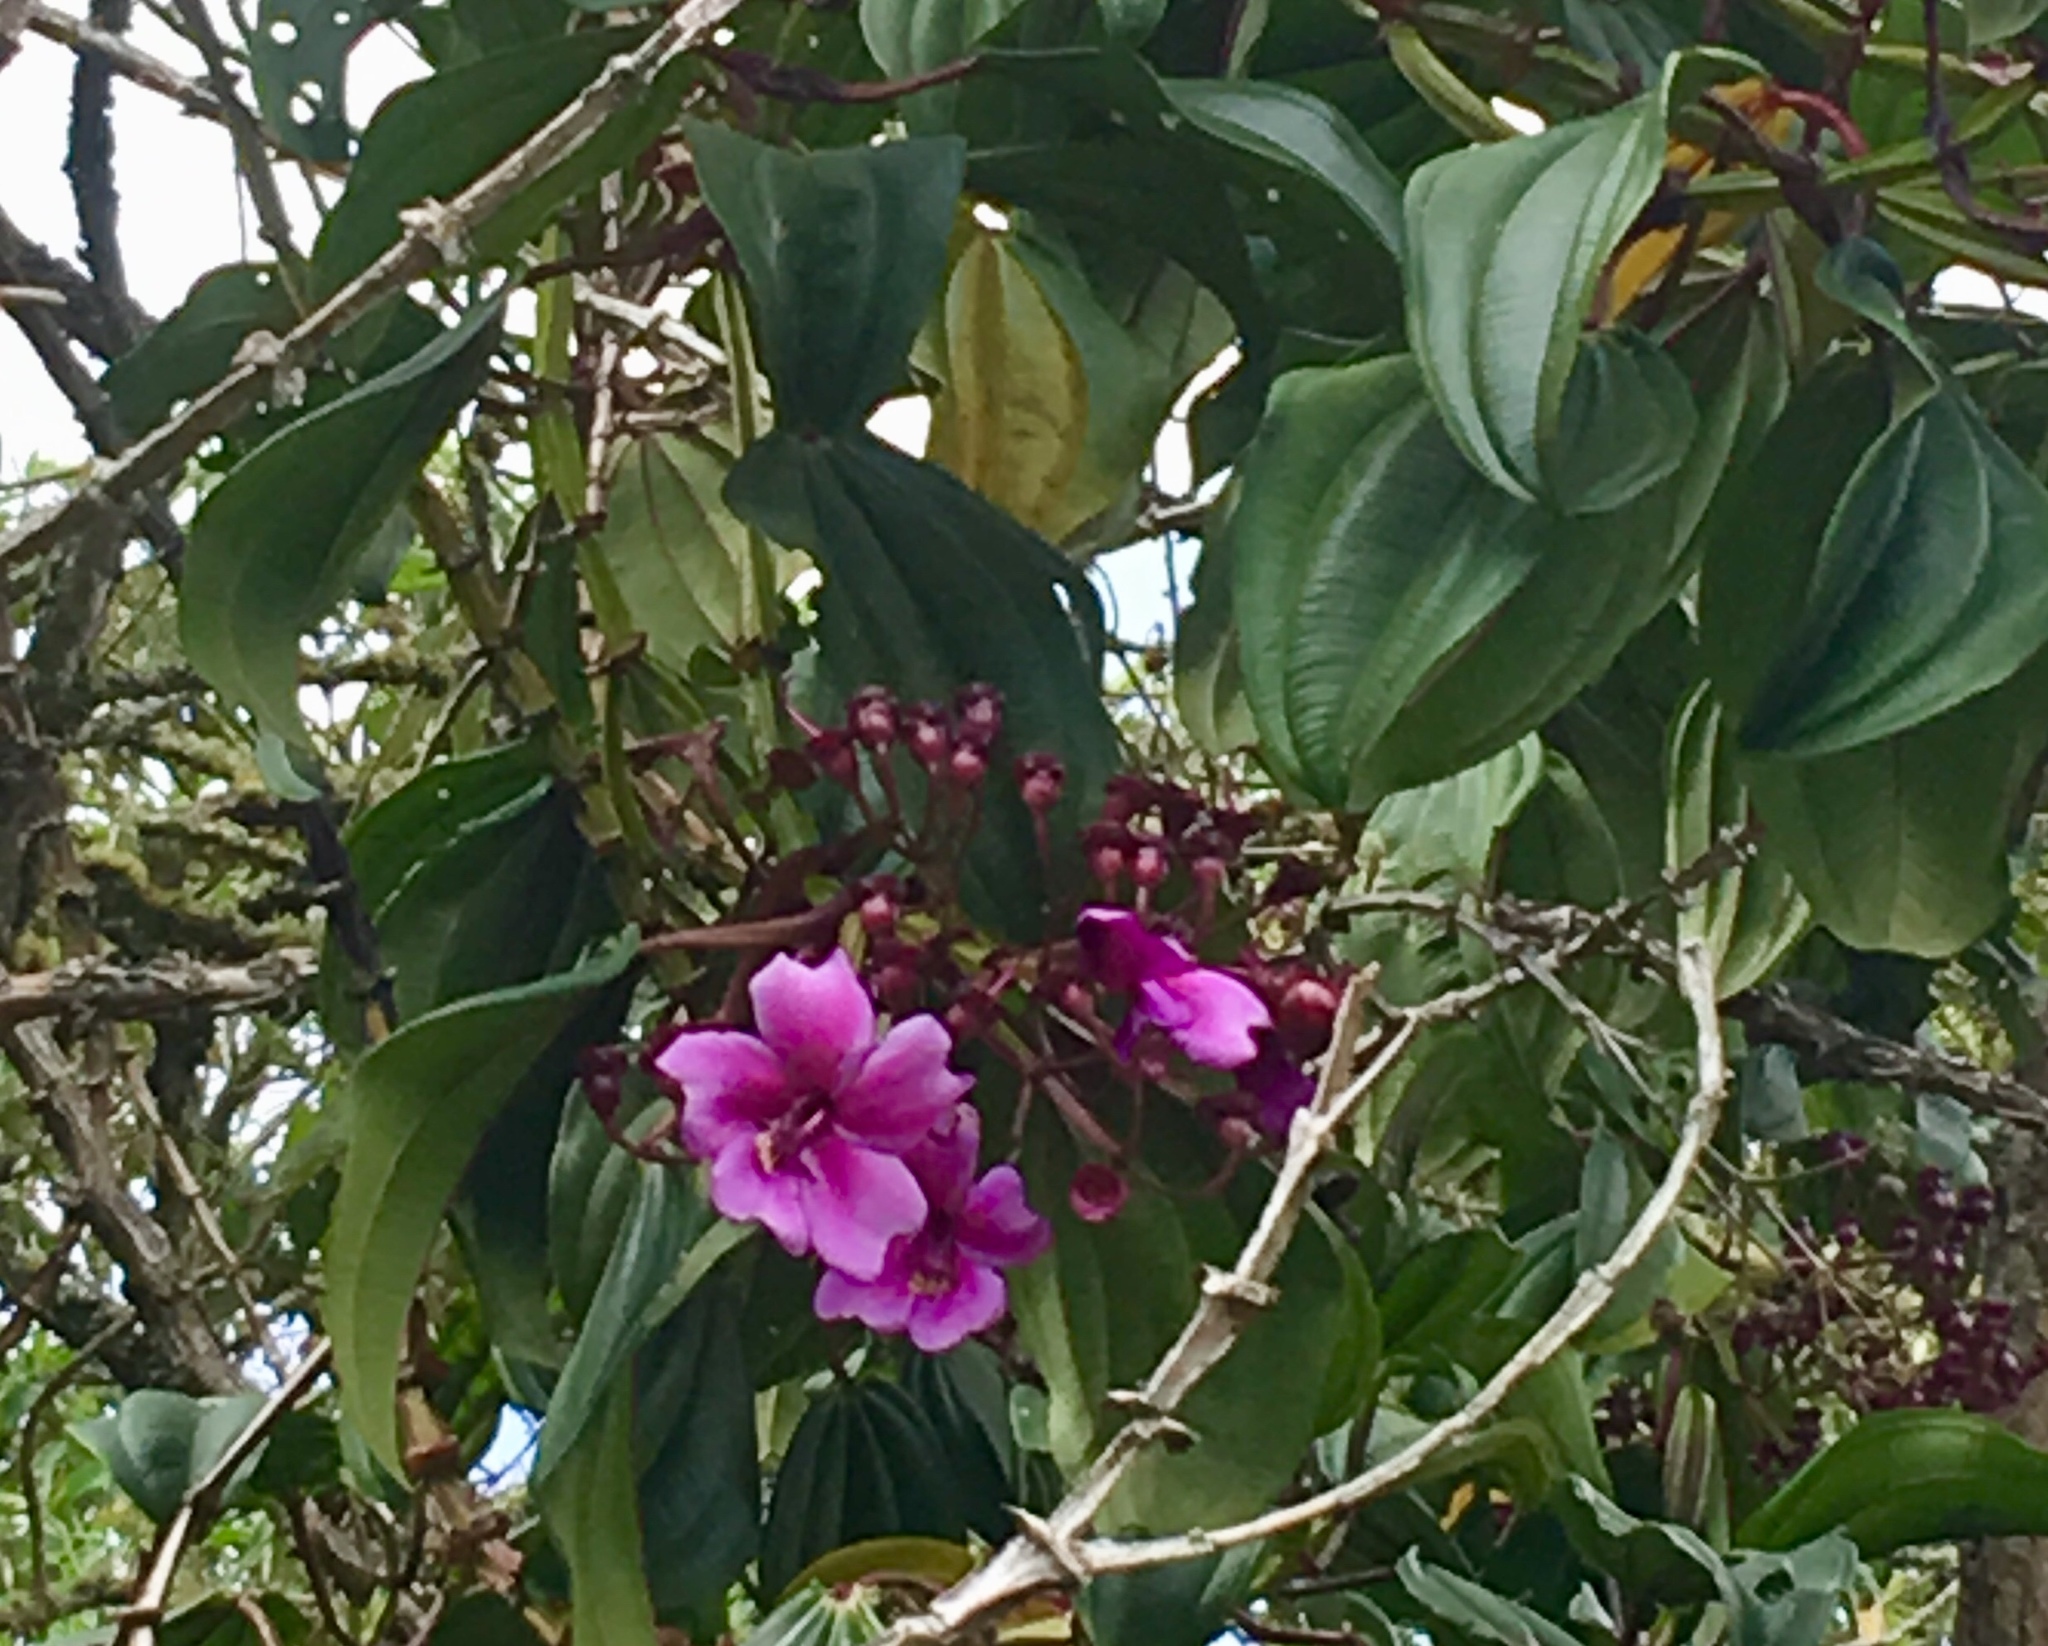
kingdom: Plantae
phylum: Tracheophyta
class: Magnoliopsida
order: Myrtales
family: Melastomataceae
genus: Meriania
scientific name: Meriania nobilis
